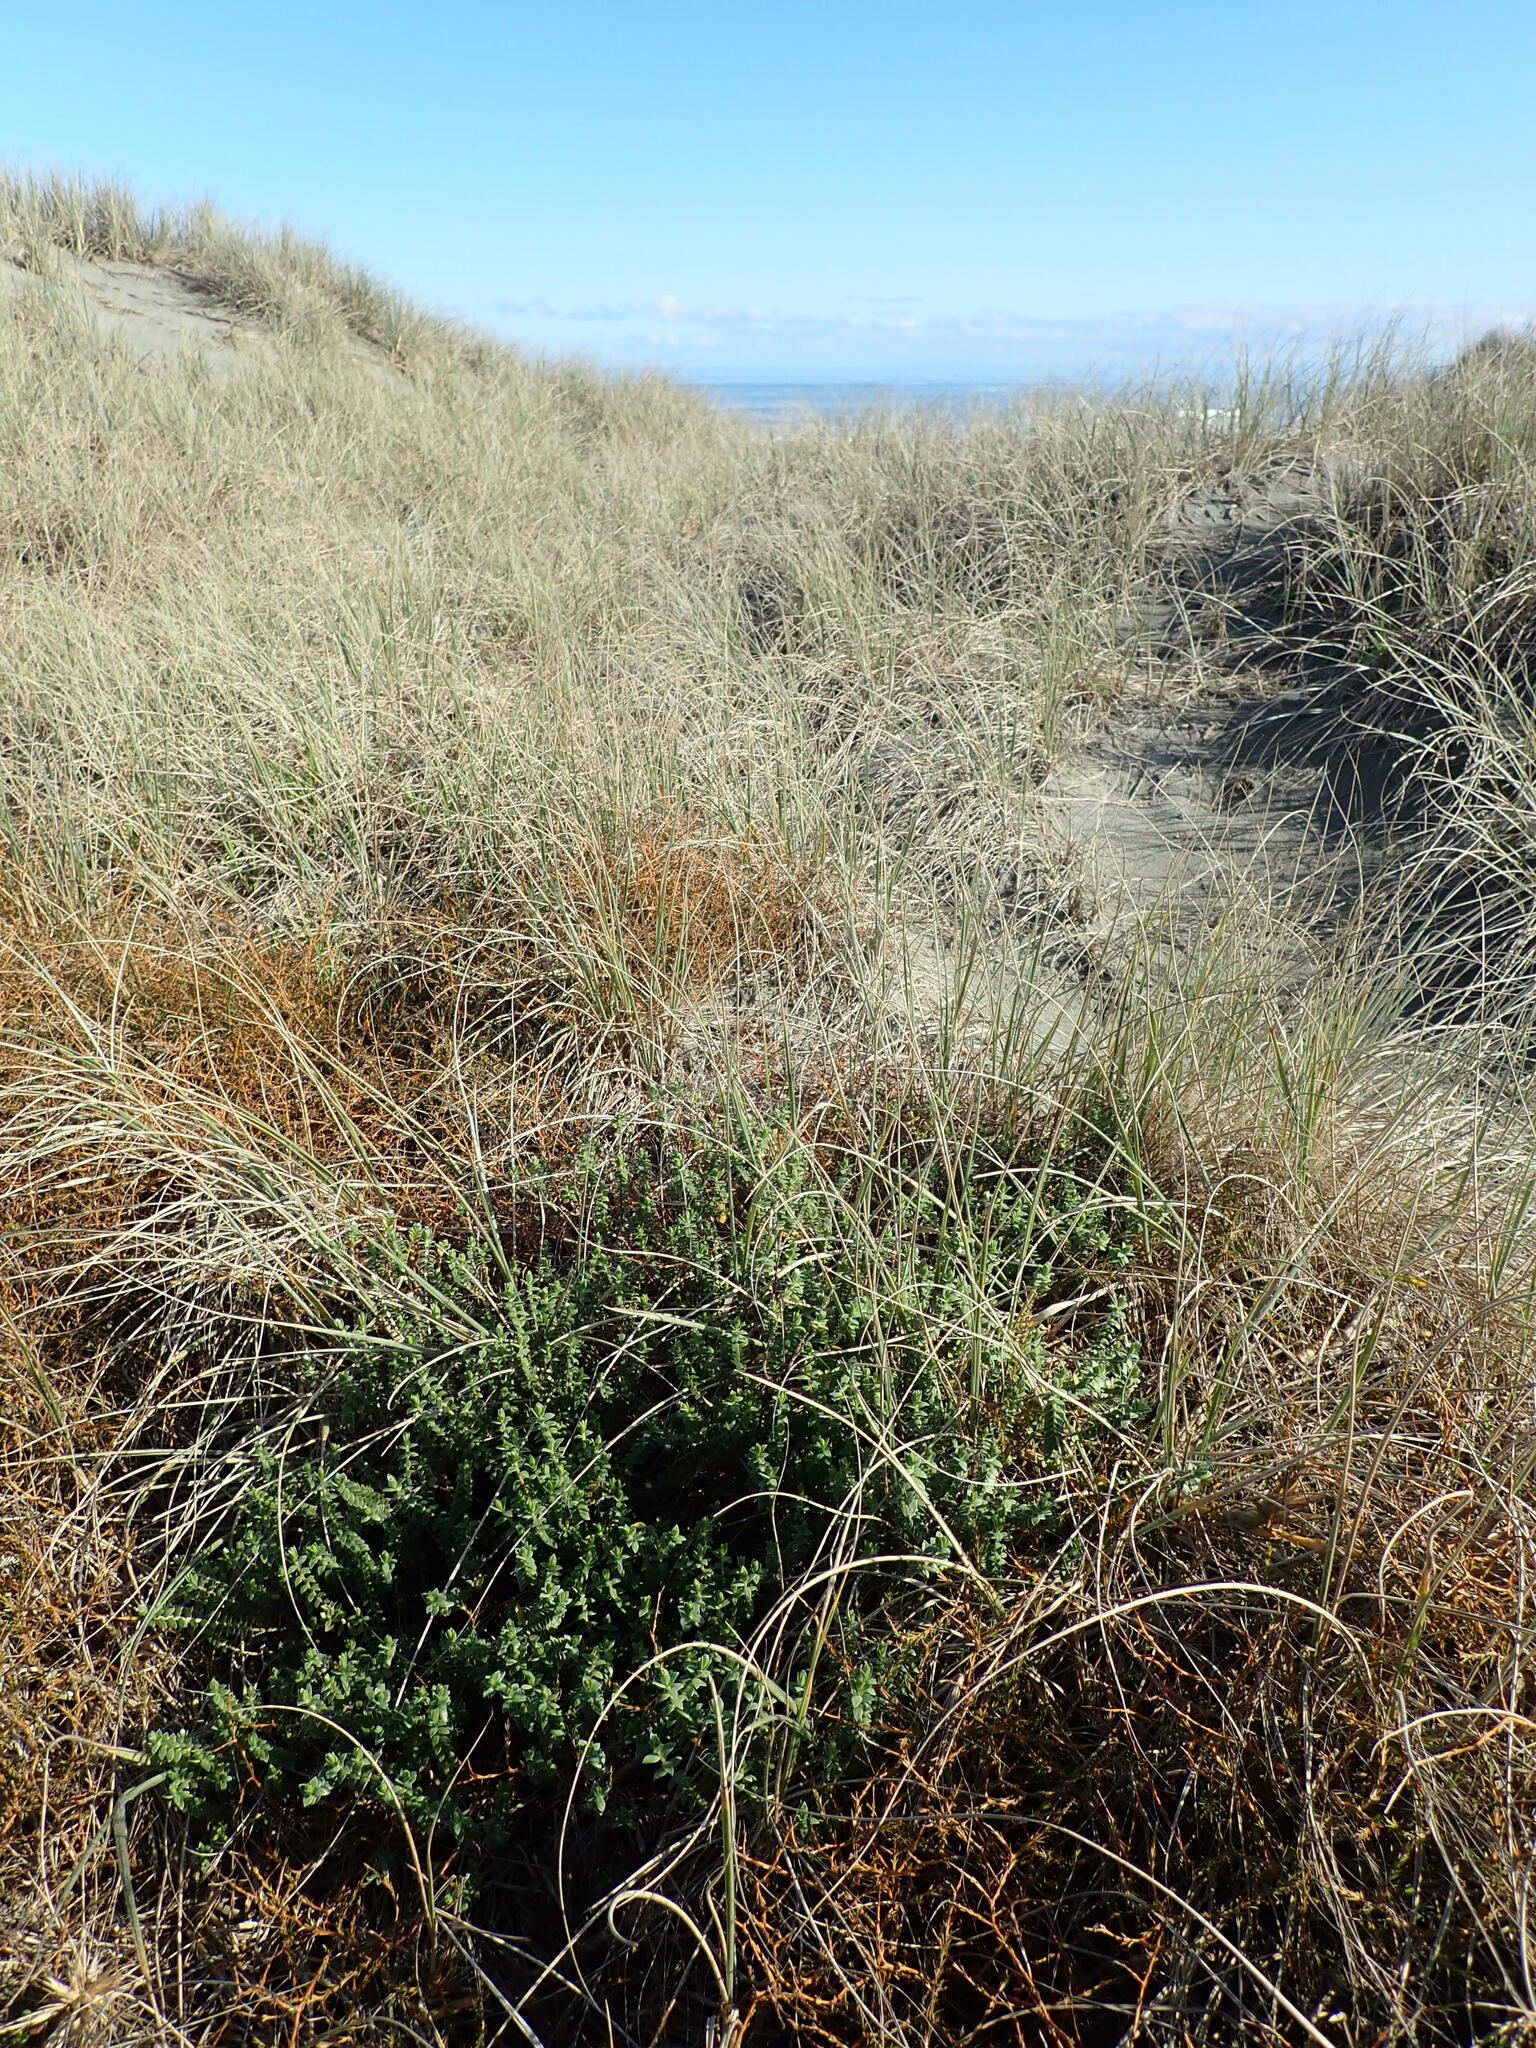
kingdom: Plantae
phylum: Tracheophyta
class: Magnoliopsida
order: Malvales
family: Thymelaeaceae
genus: Pimelea
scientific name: Pimelea villosa
